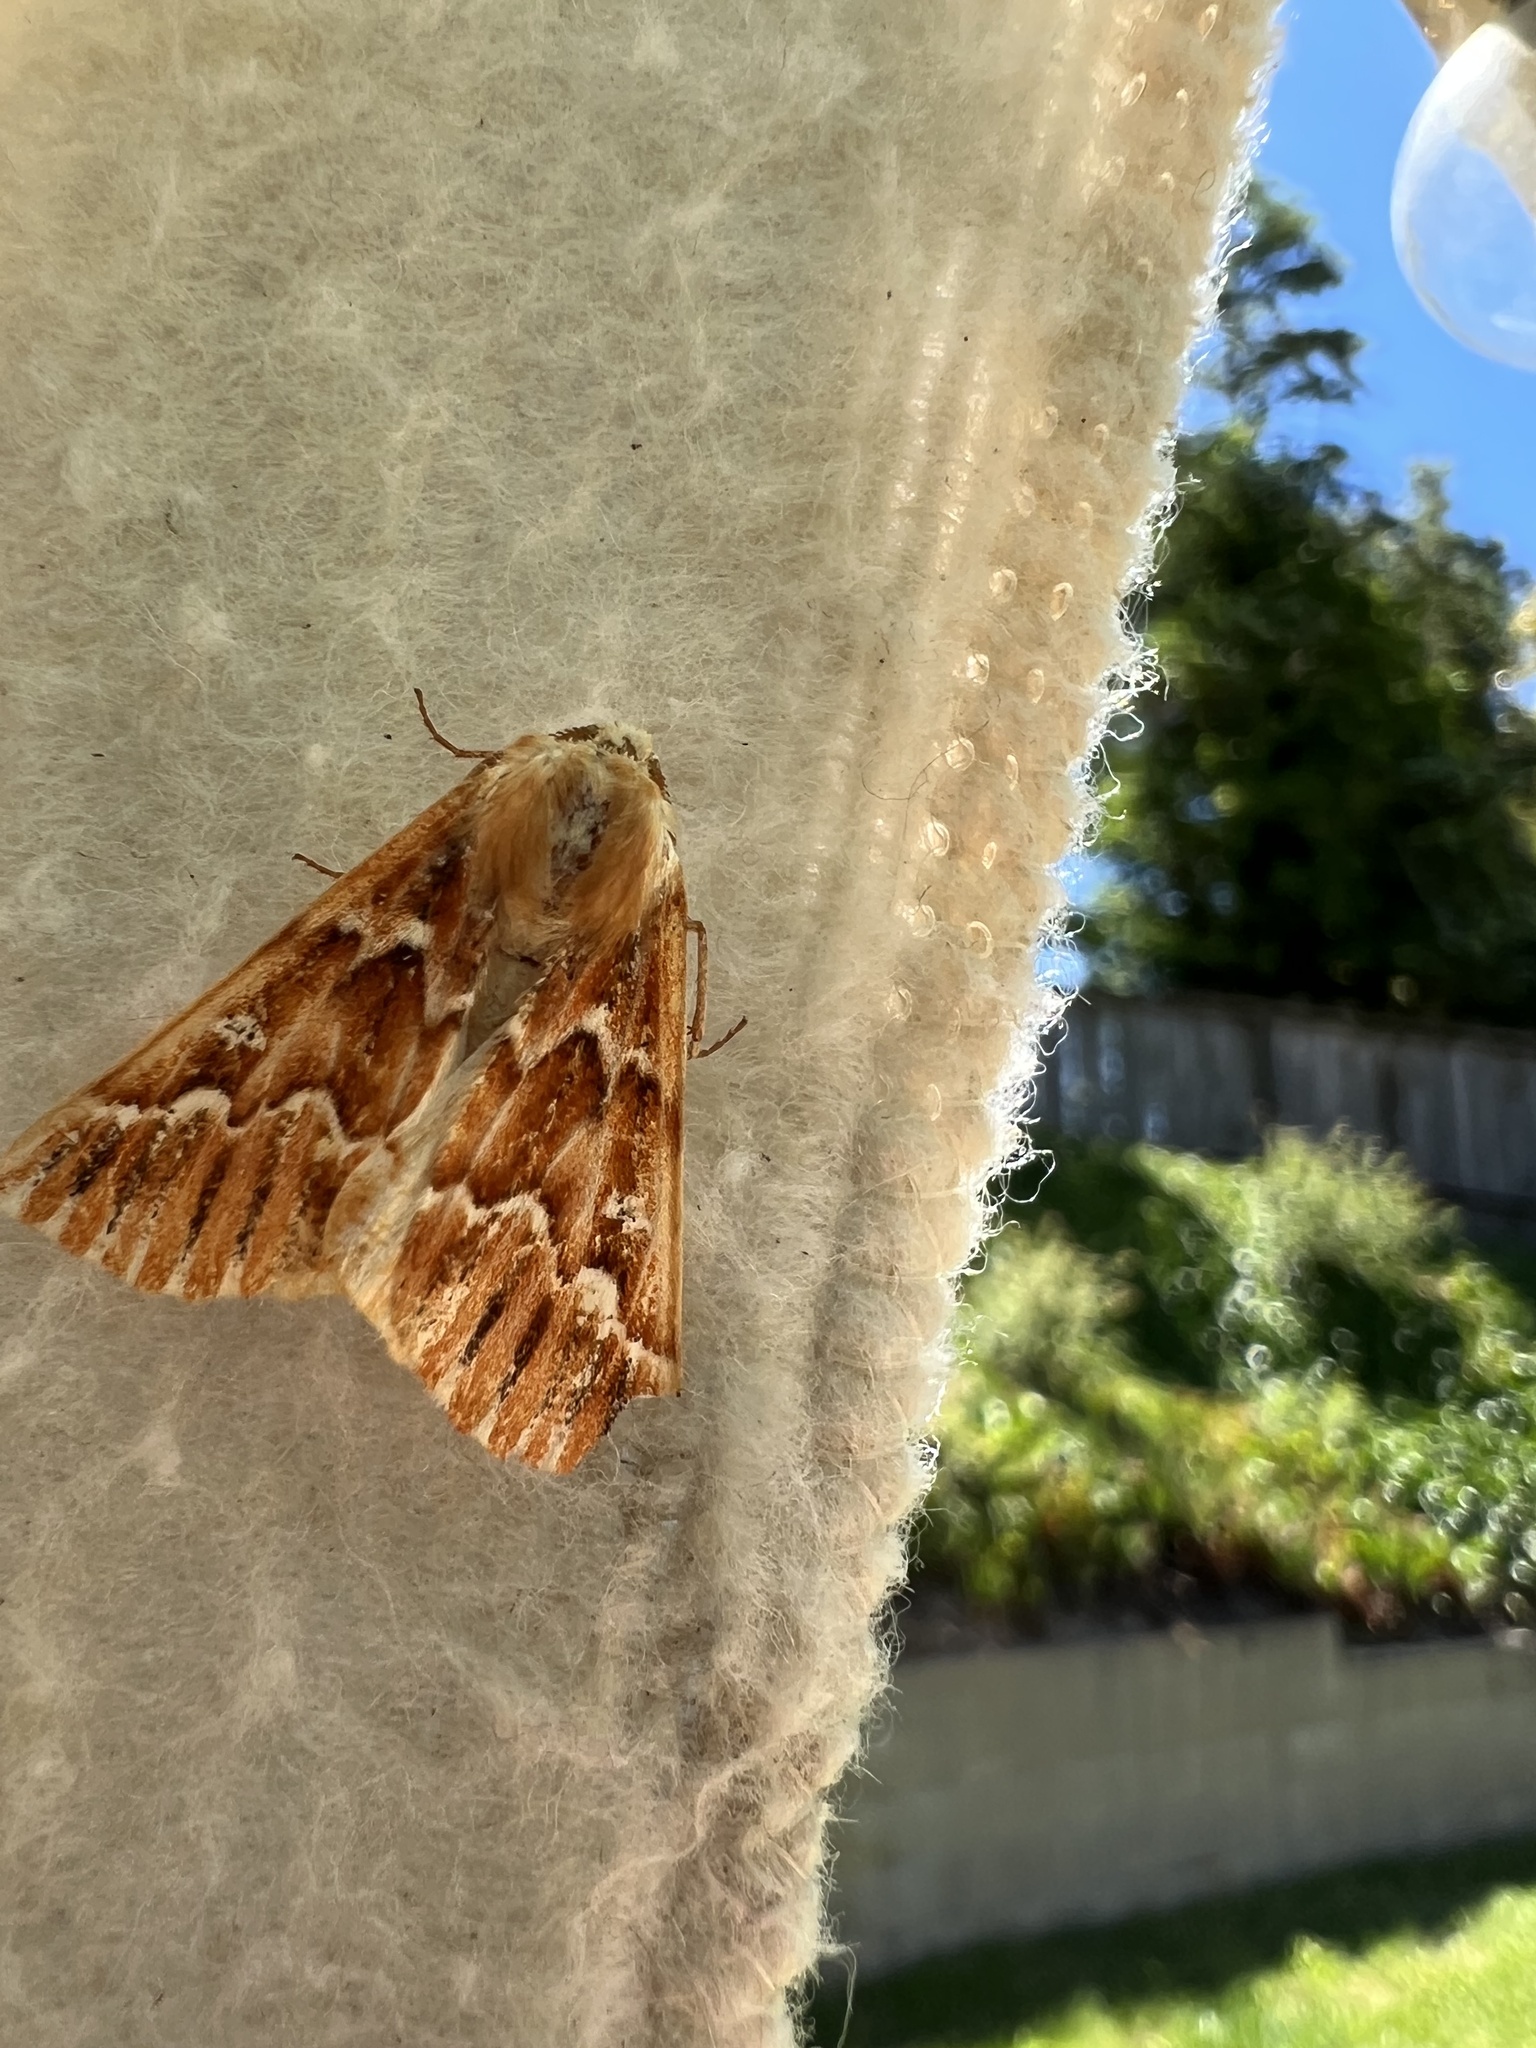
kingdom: Animalia
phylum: Arthropoda
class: Insecta
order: Lepidoptera
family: Geometridae
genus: Caripeta
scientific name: Caripeta aequaliaria
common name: Red girdle moth
